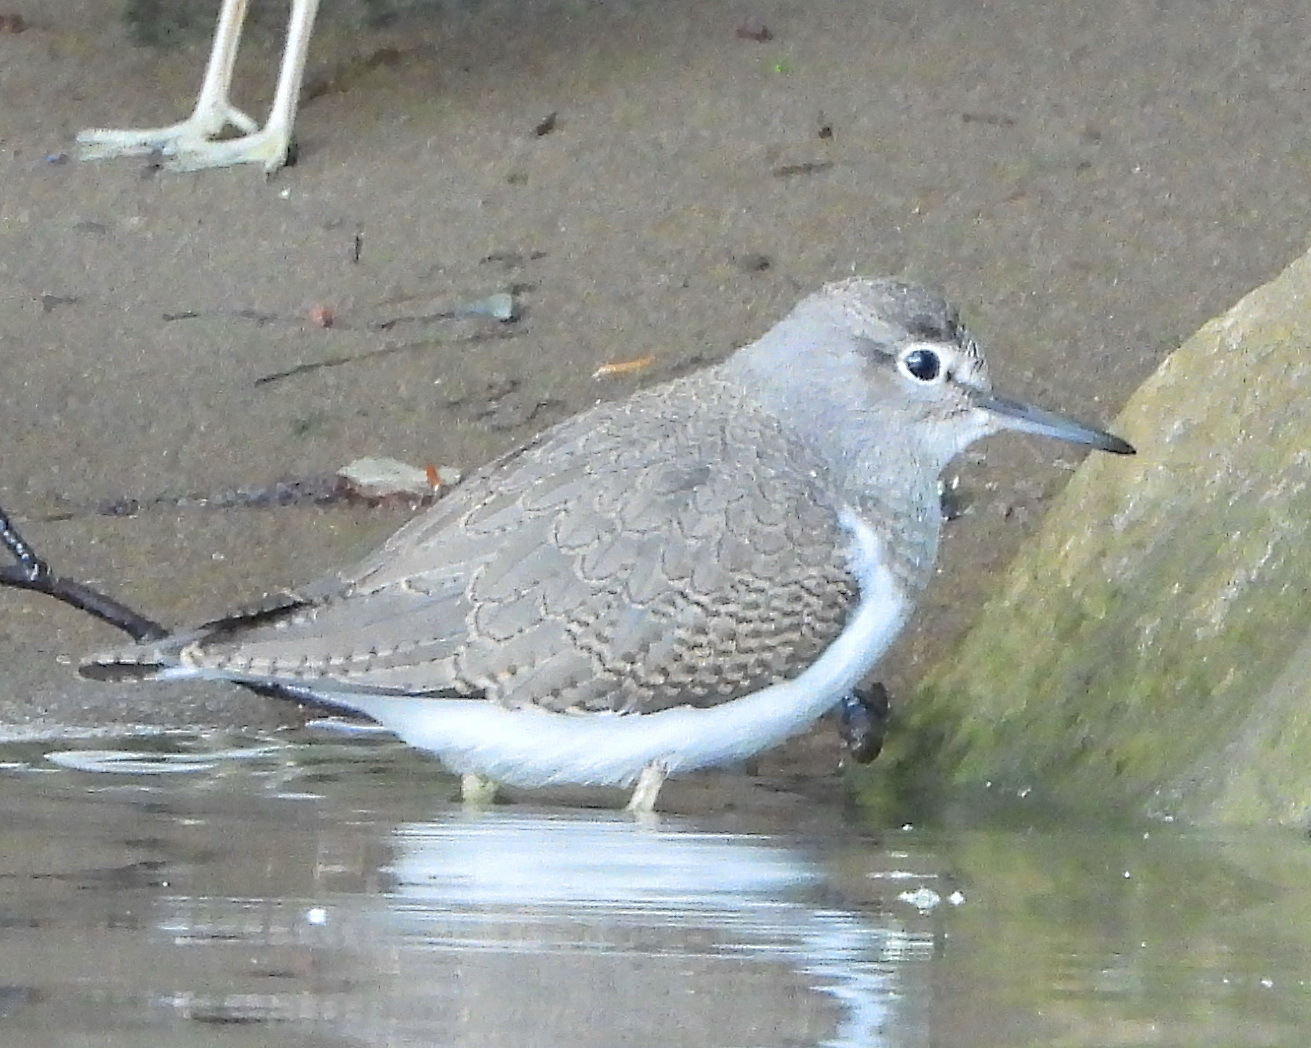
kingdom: Animalia
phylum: Chordata
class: Aves
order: Charadriiformes
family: Scolopacidae
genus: Actitis
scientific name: Actitis hypoleucos
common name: Common sandpiper
